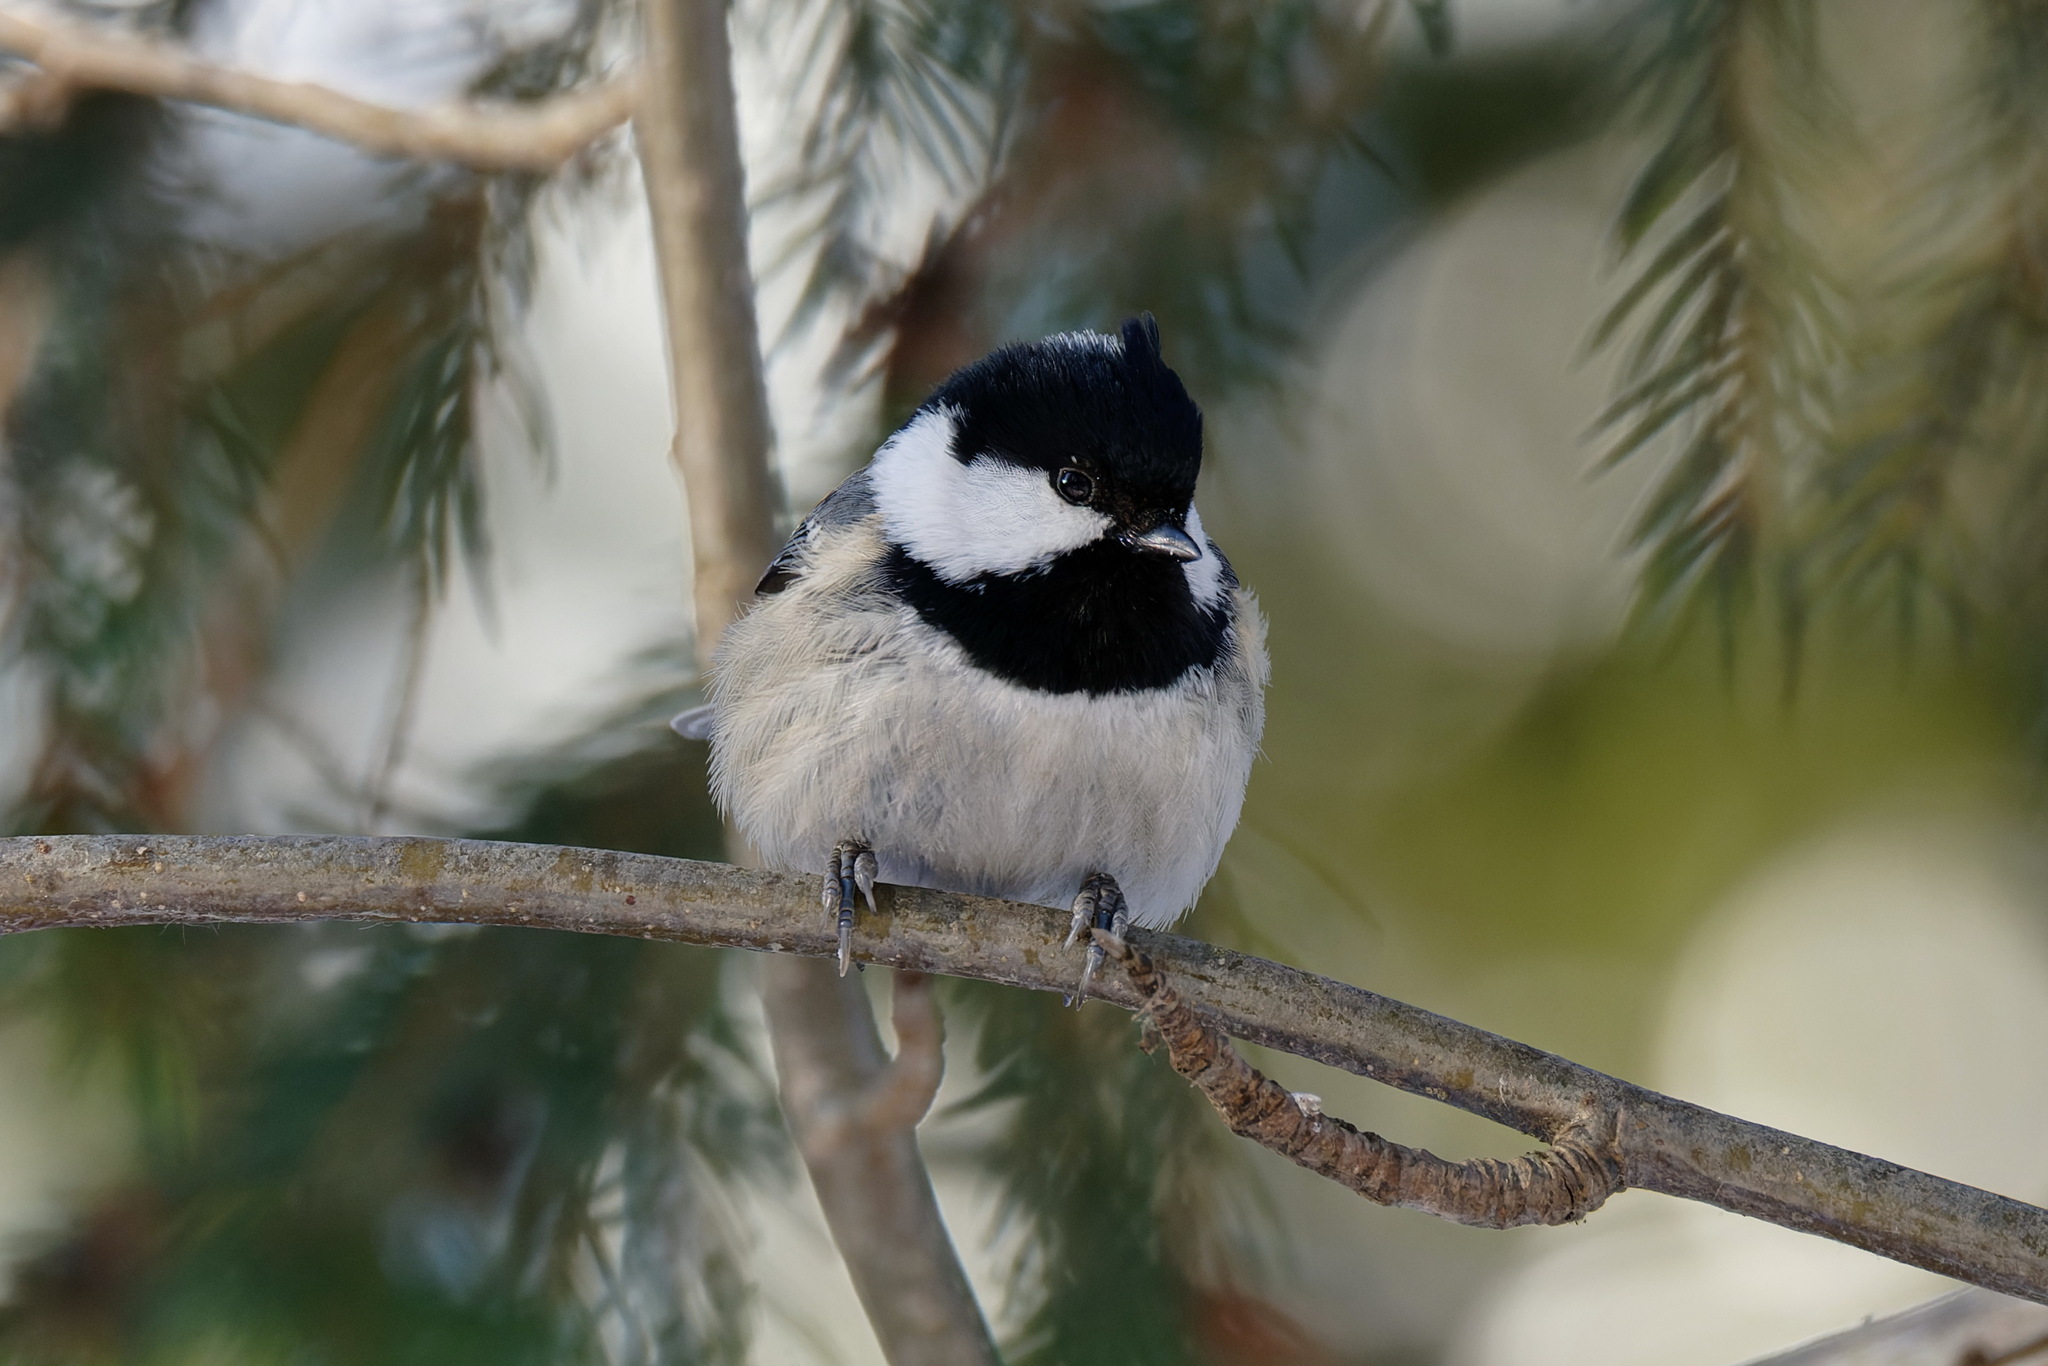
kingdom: Animalia
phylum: Chordata
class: Aves
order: Passeriformes
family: Paridae
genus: Periparus
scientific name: Periparus ater
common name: Coal tit
